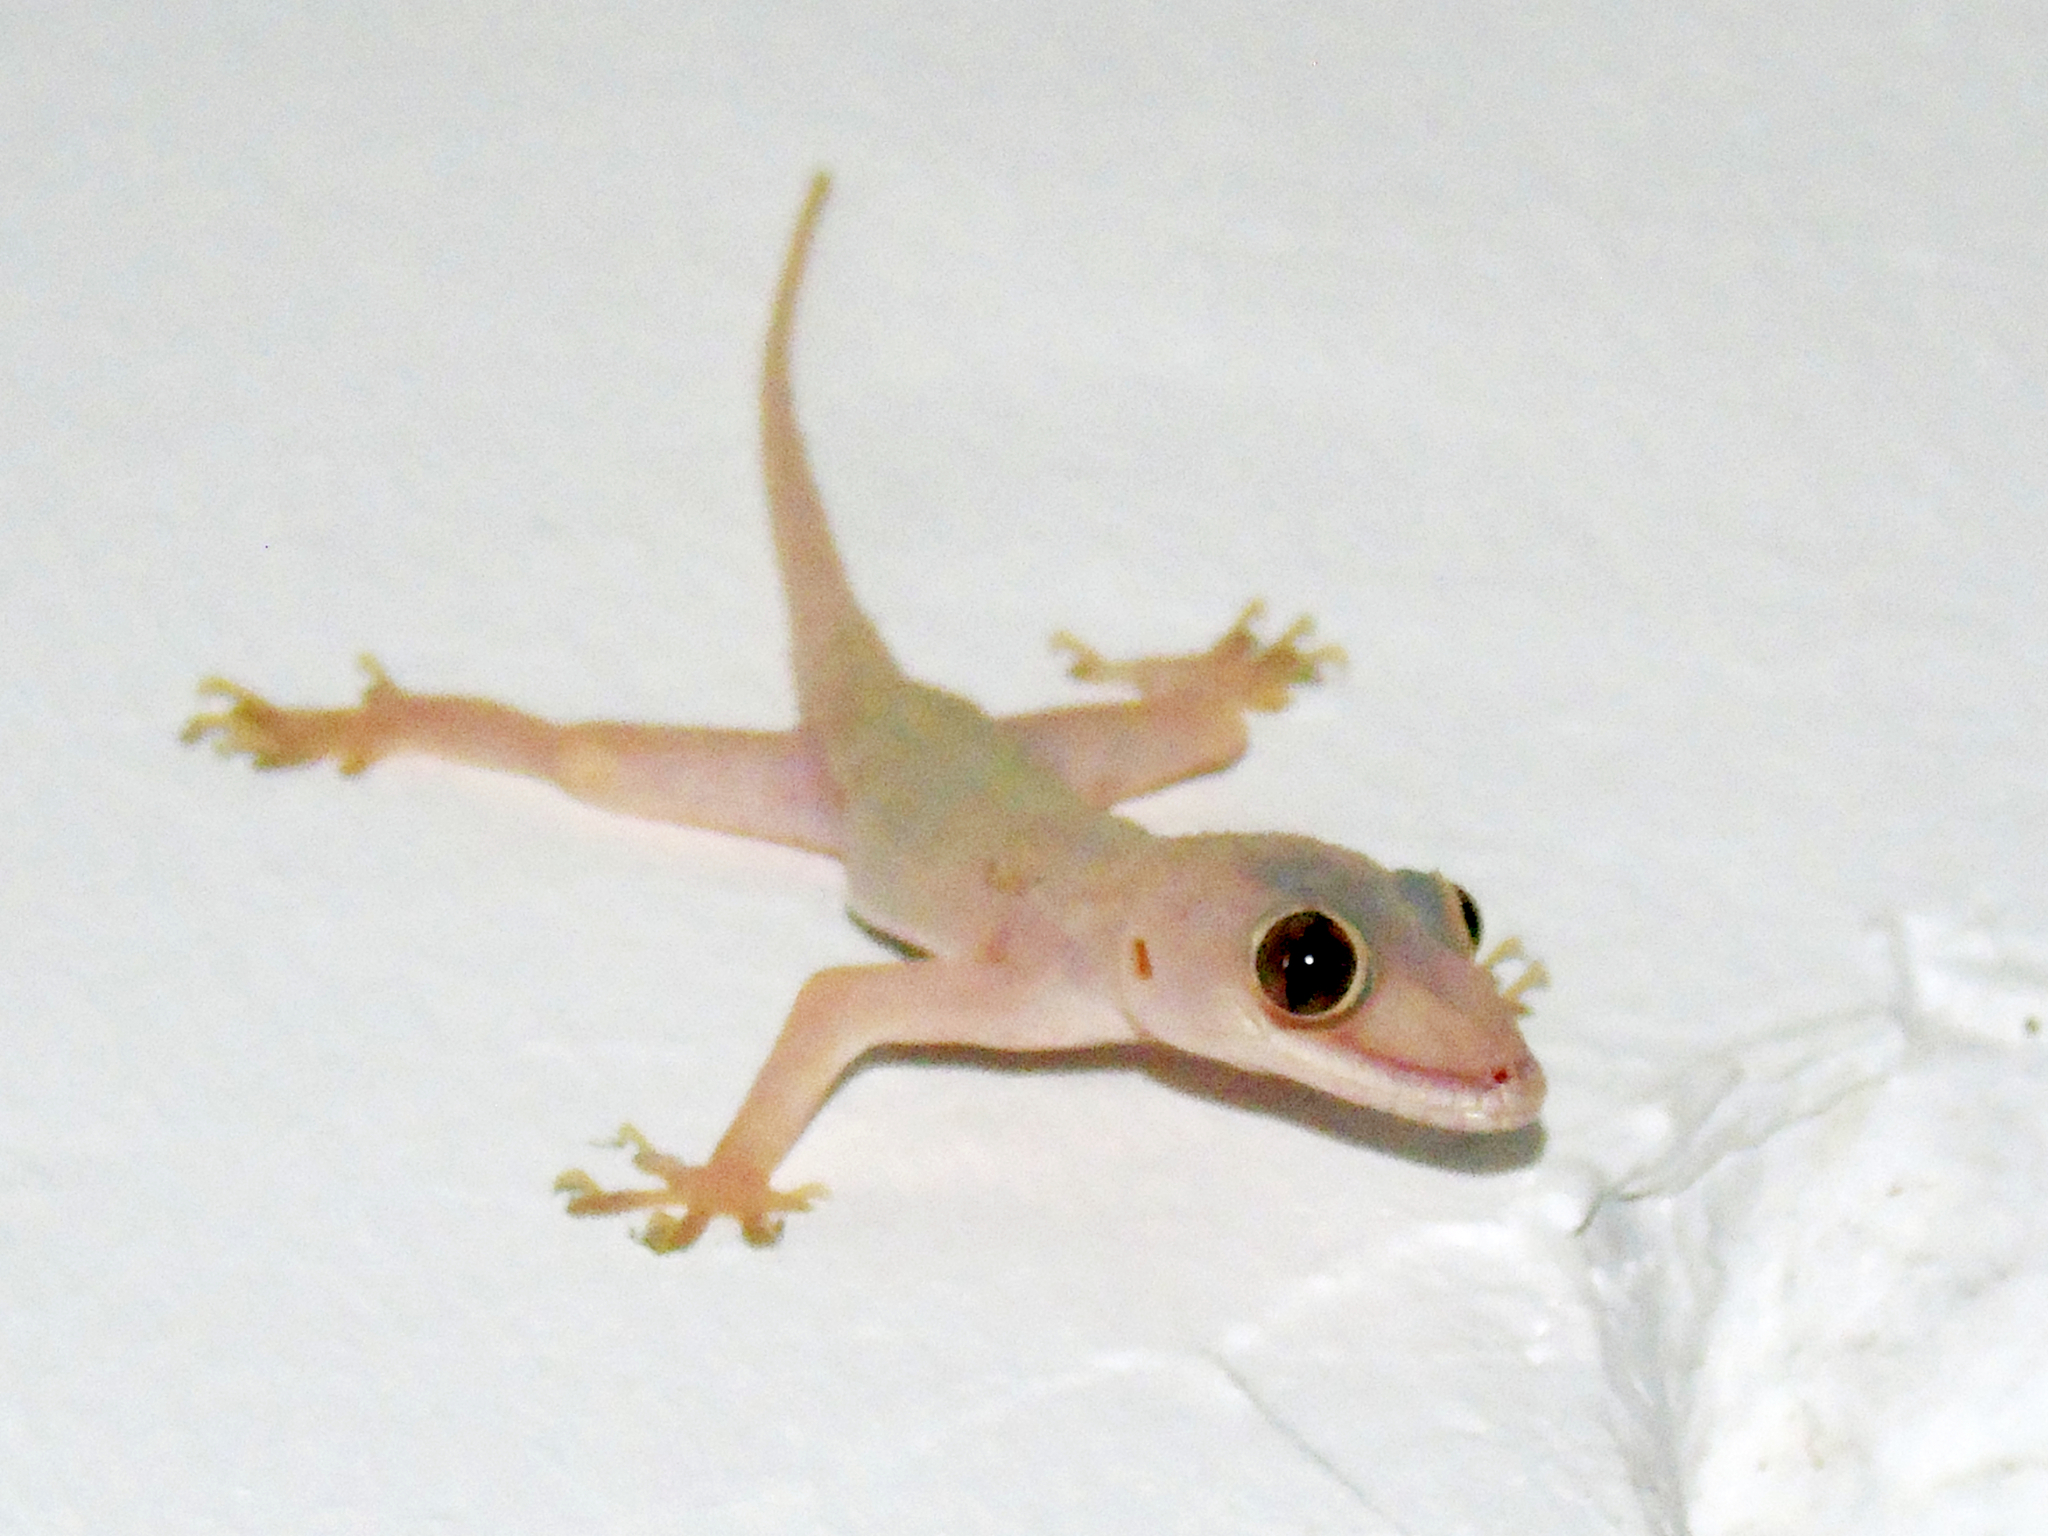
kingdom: Animalia
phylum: Chordata
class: Squamata
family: Gekkonidae
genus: Hemidactylus
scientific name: Hemidactylus mabouia
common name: House gecko
